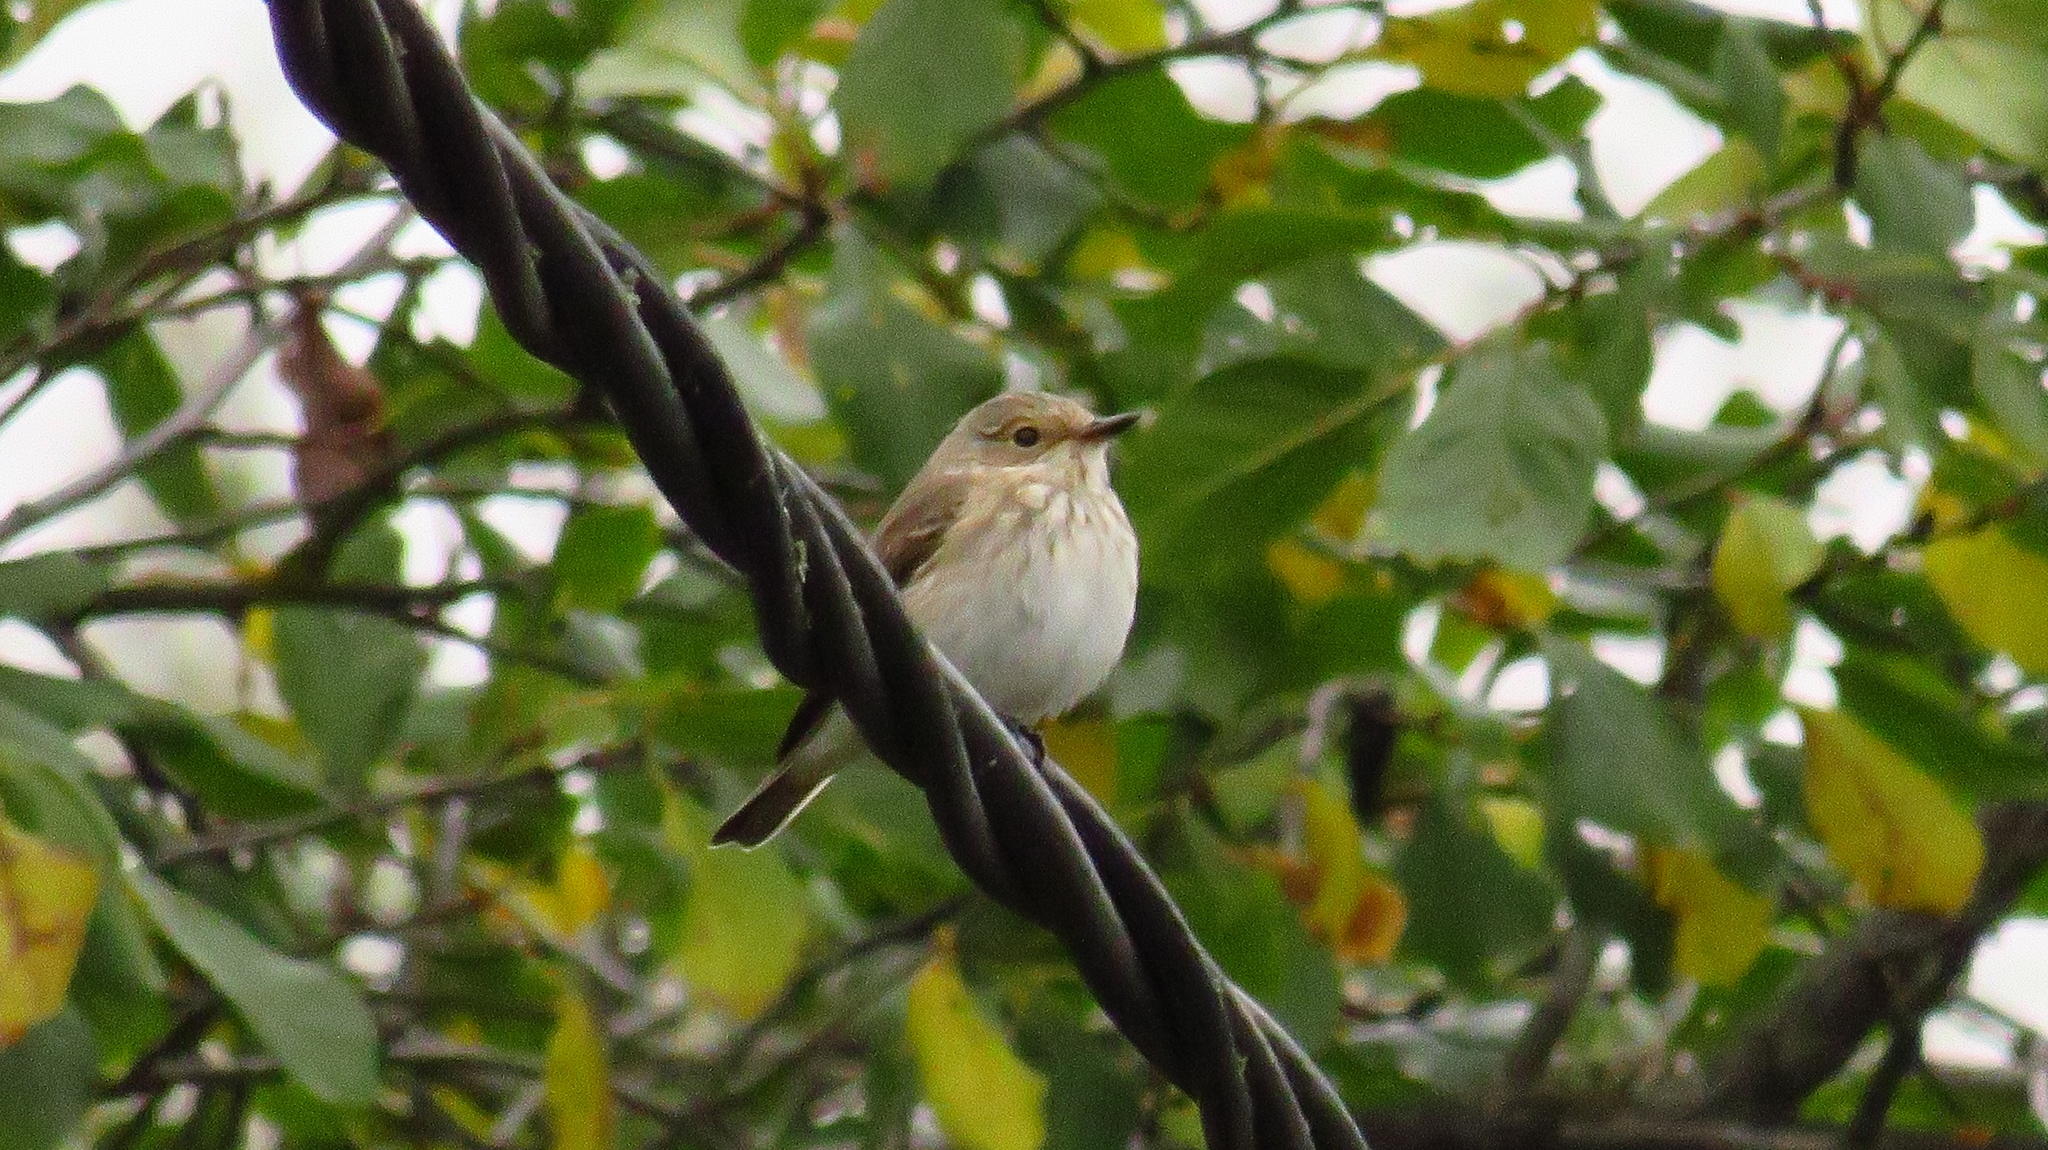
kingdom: Animalia
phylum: Chordata
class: Aves
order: Passeriformes
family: Muscicapidae
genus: Muscicapa
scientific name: Muscicapa striata
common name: Spotted flycatcher
